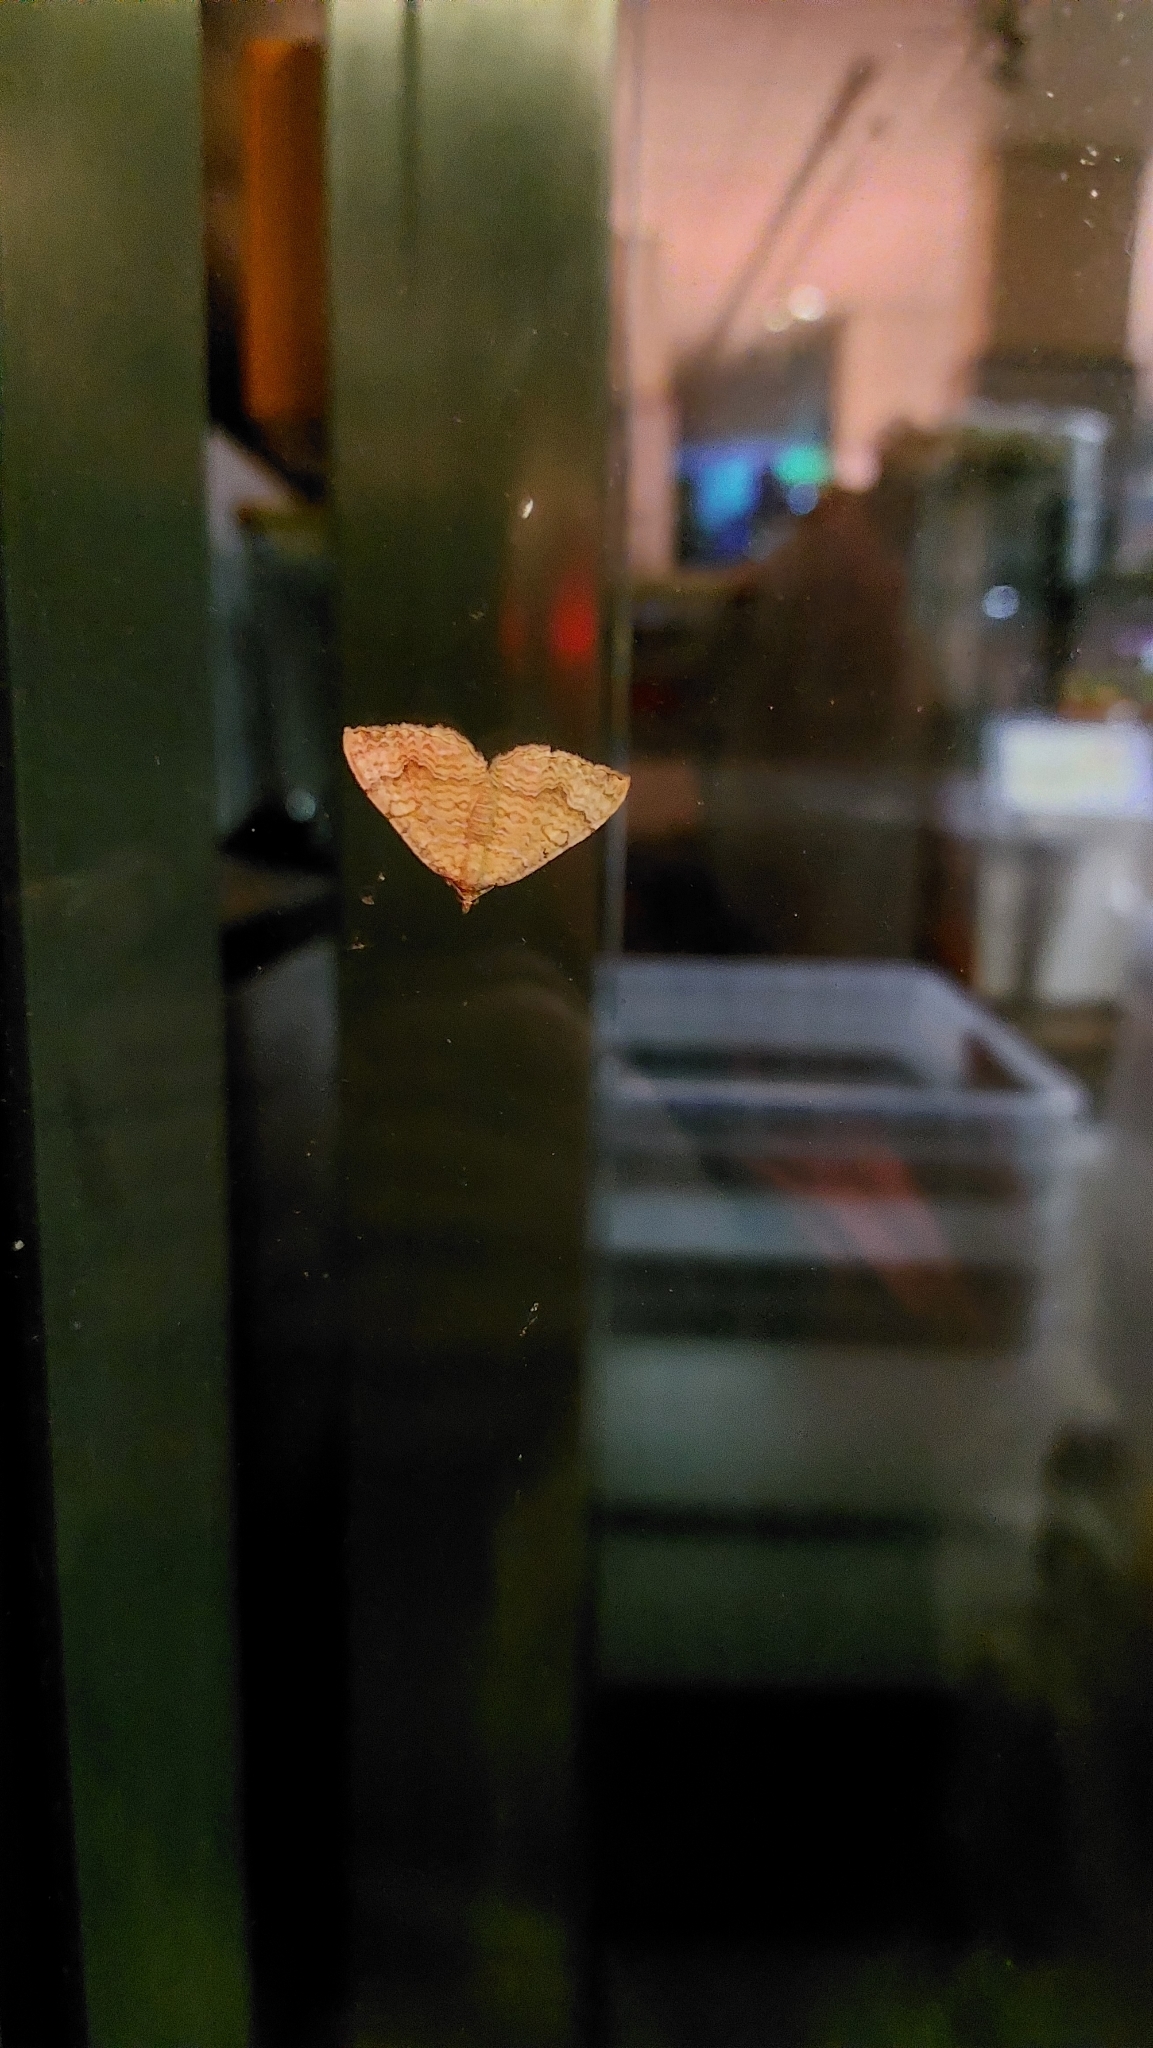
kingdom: Animalia
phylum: Arthropoda
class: Insecta
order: Lepidoptera
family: Geometridae
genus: Camptogramma
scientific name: Camptogramma bilineata
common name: Yellow shell
